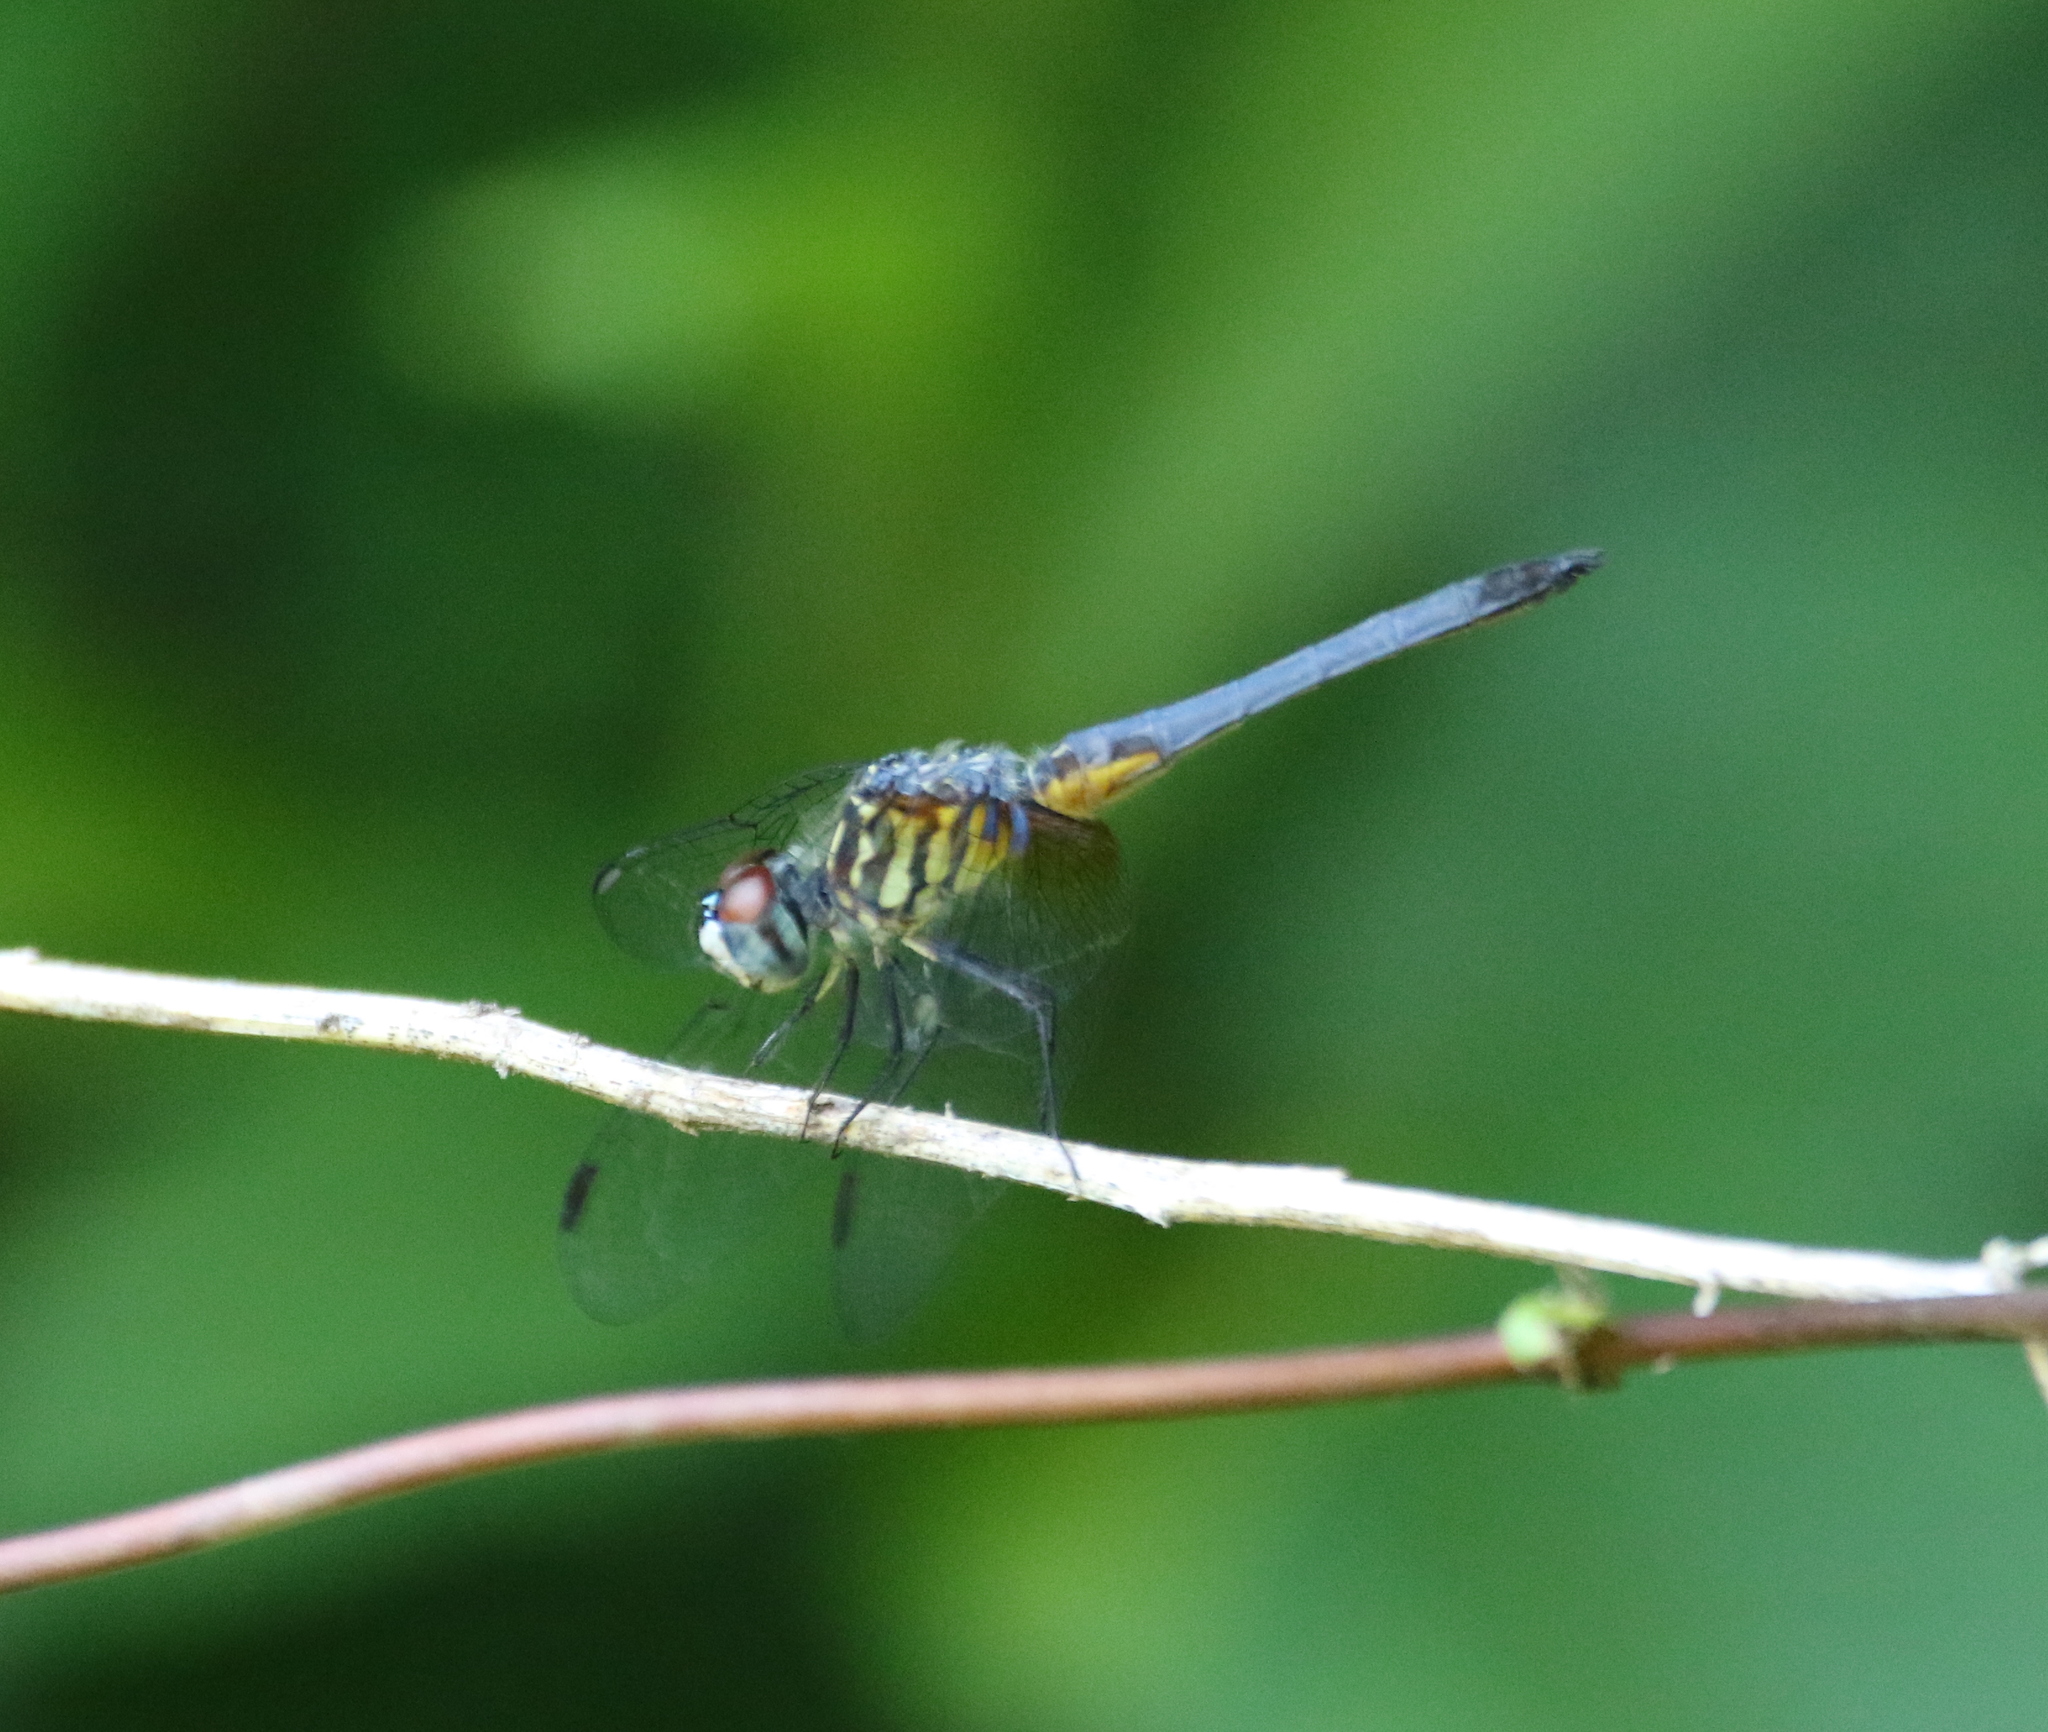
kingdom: Animalia
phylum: Arthropoda
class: Insecta
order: Odonata
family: Libellulidae
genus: Pachydiplax
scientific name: Pachydiplax longipennis
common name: Blue dasher
